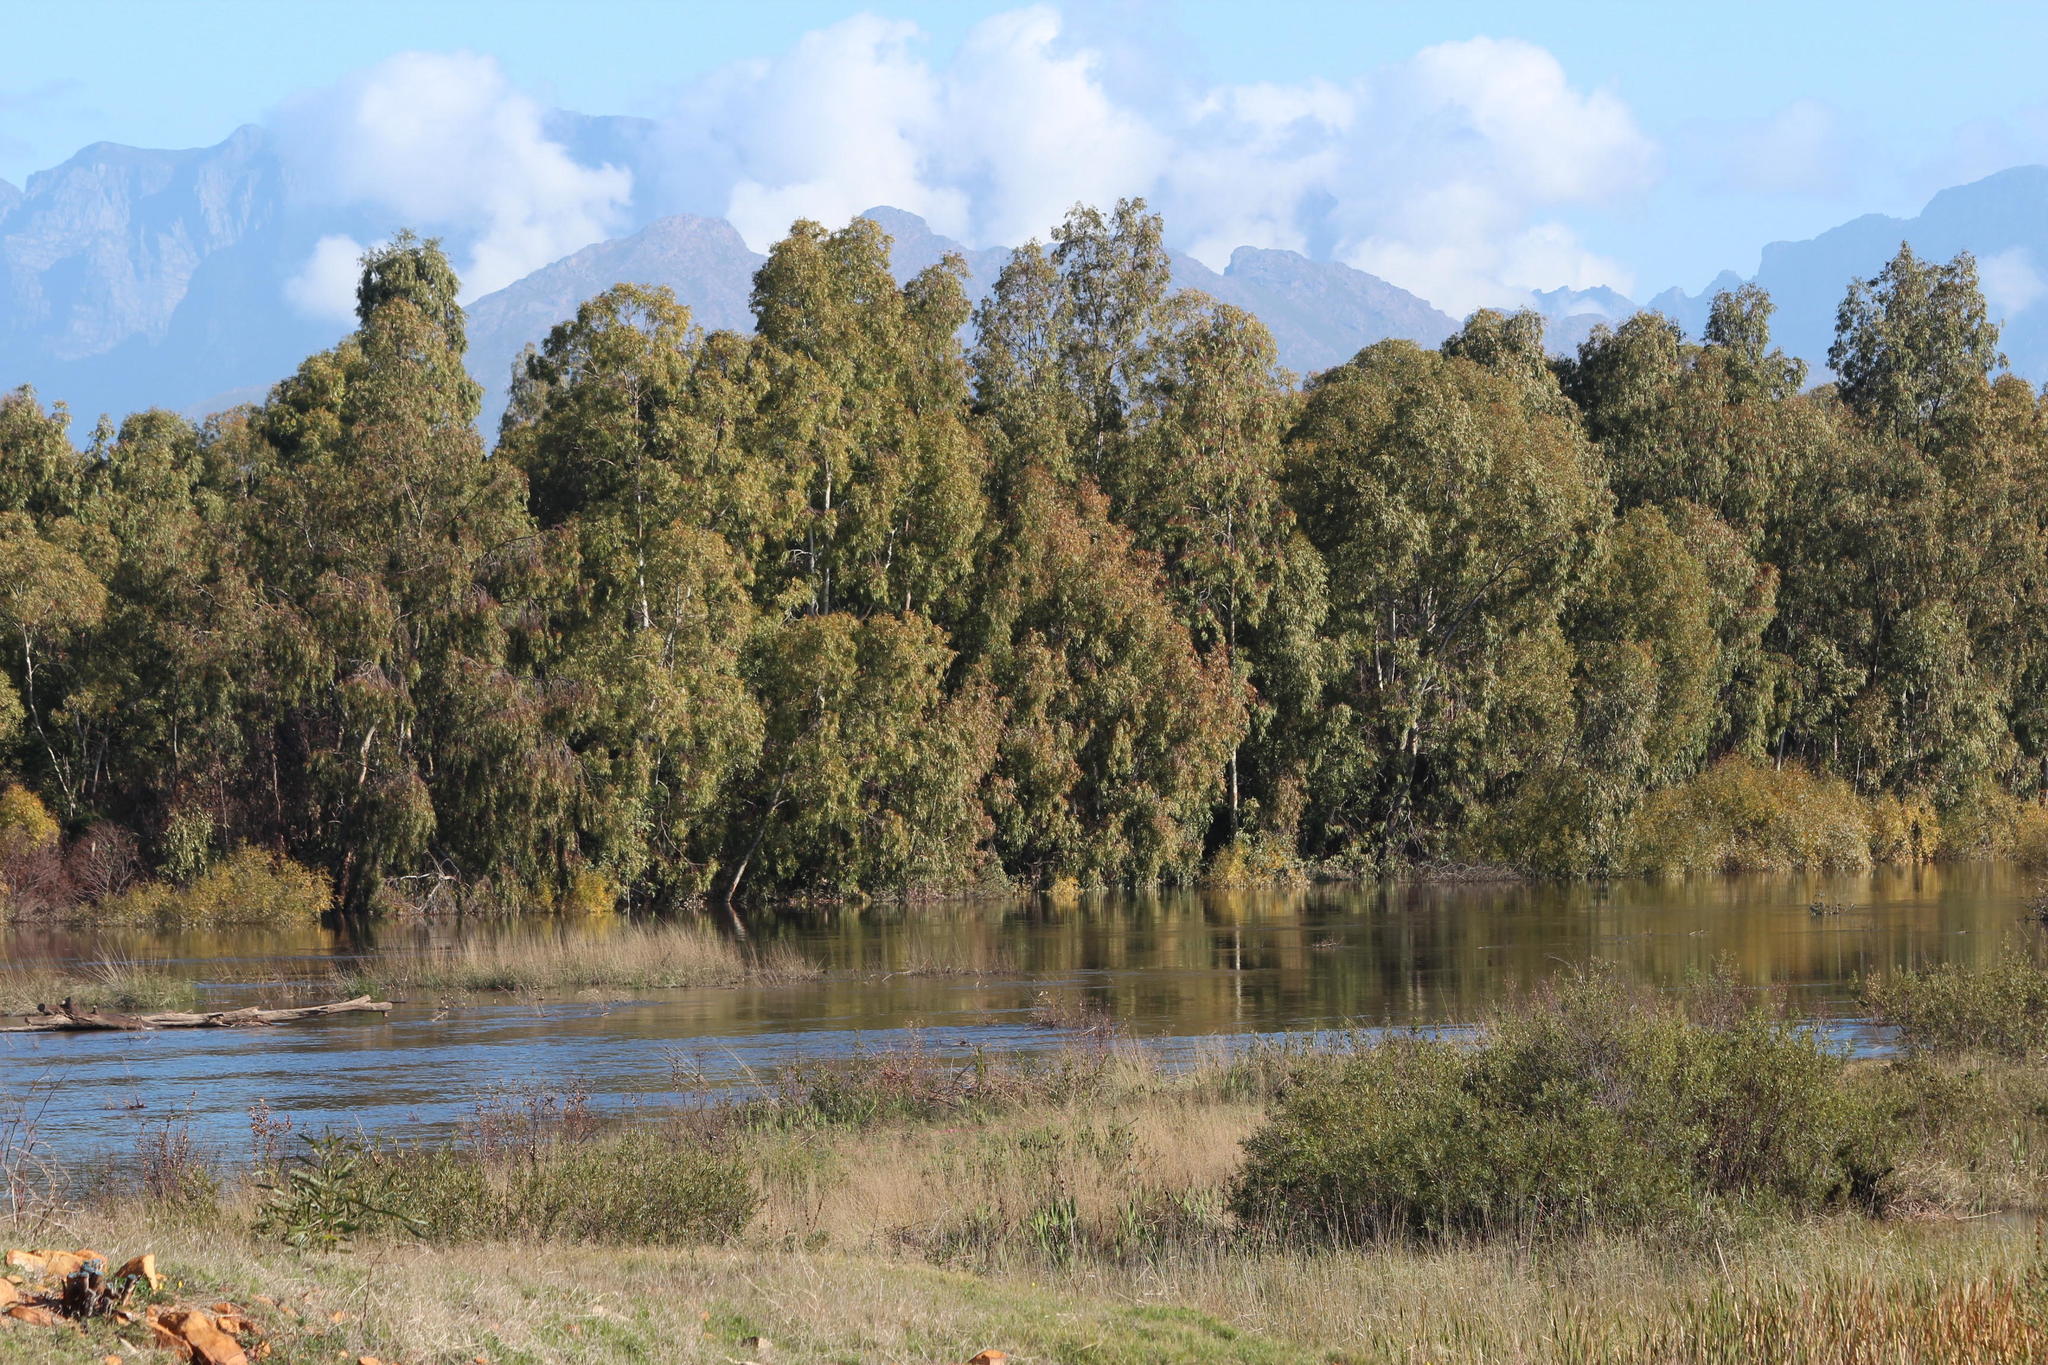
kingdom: Plantae
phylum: Tracheophyta
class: Magnoliopsida
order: Myrtales
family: Myrtaceae
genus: Eucalyptus
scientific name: Eucalyptus camaldulensis
